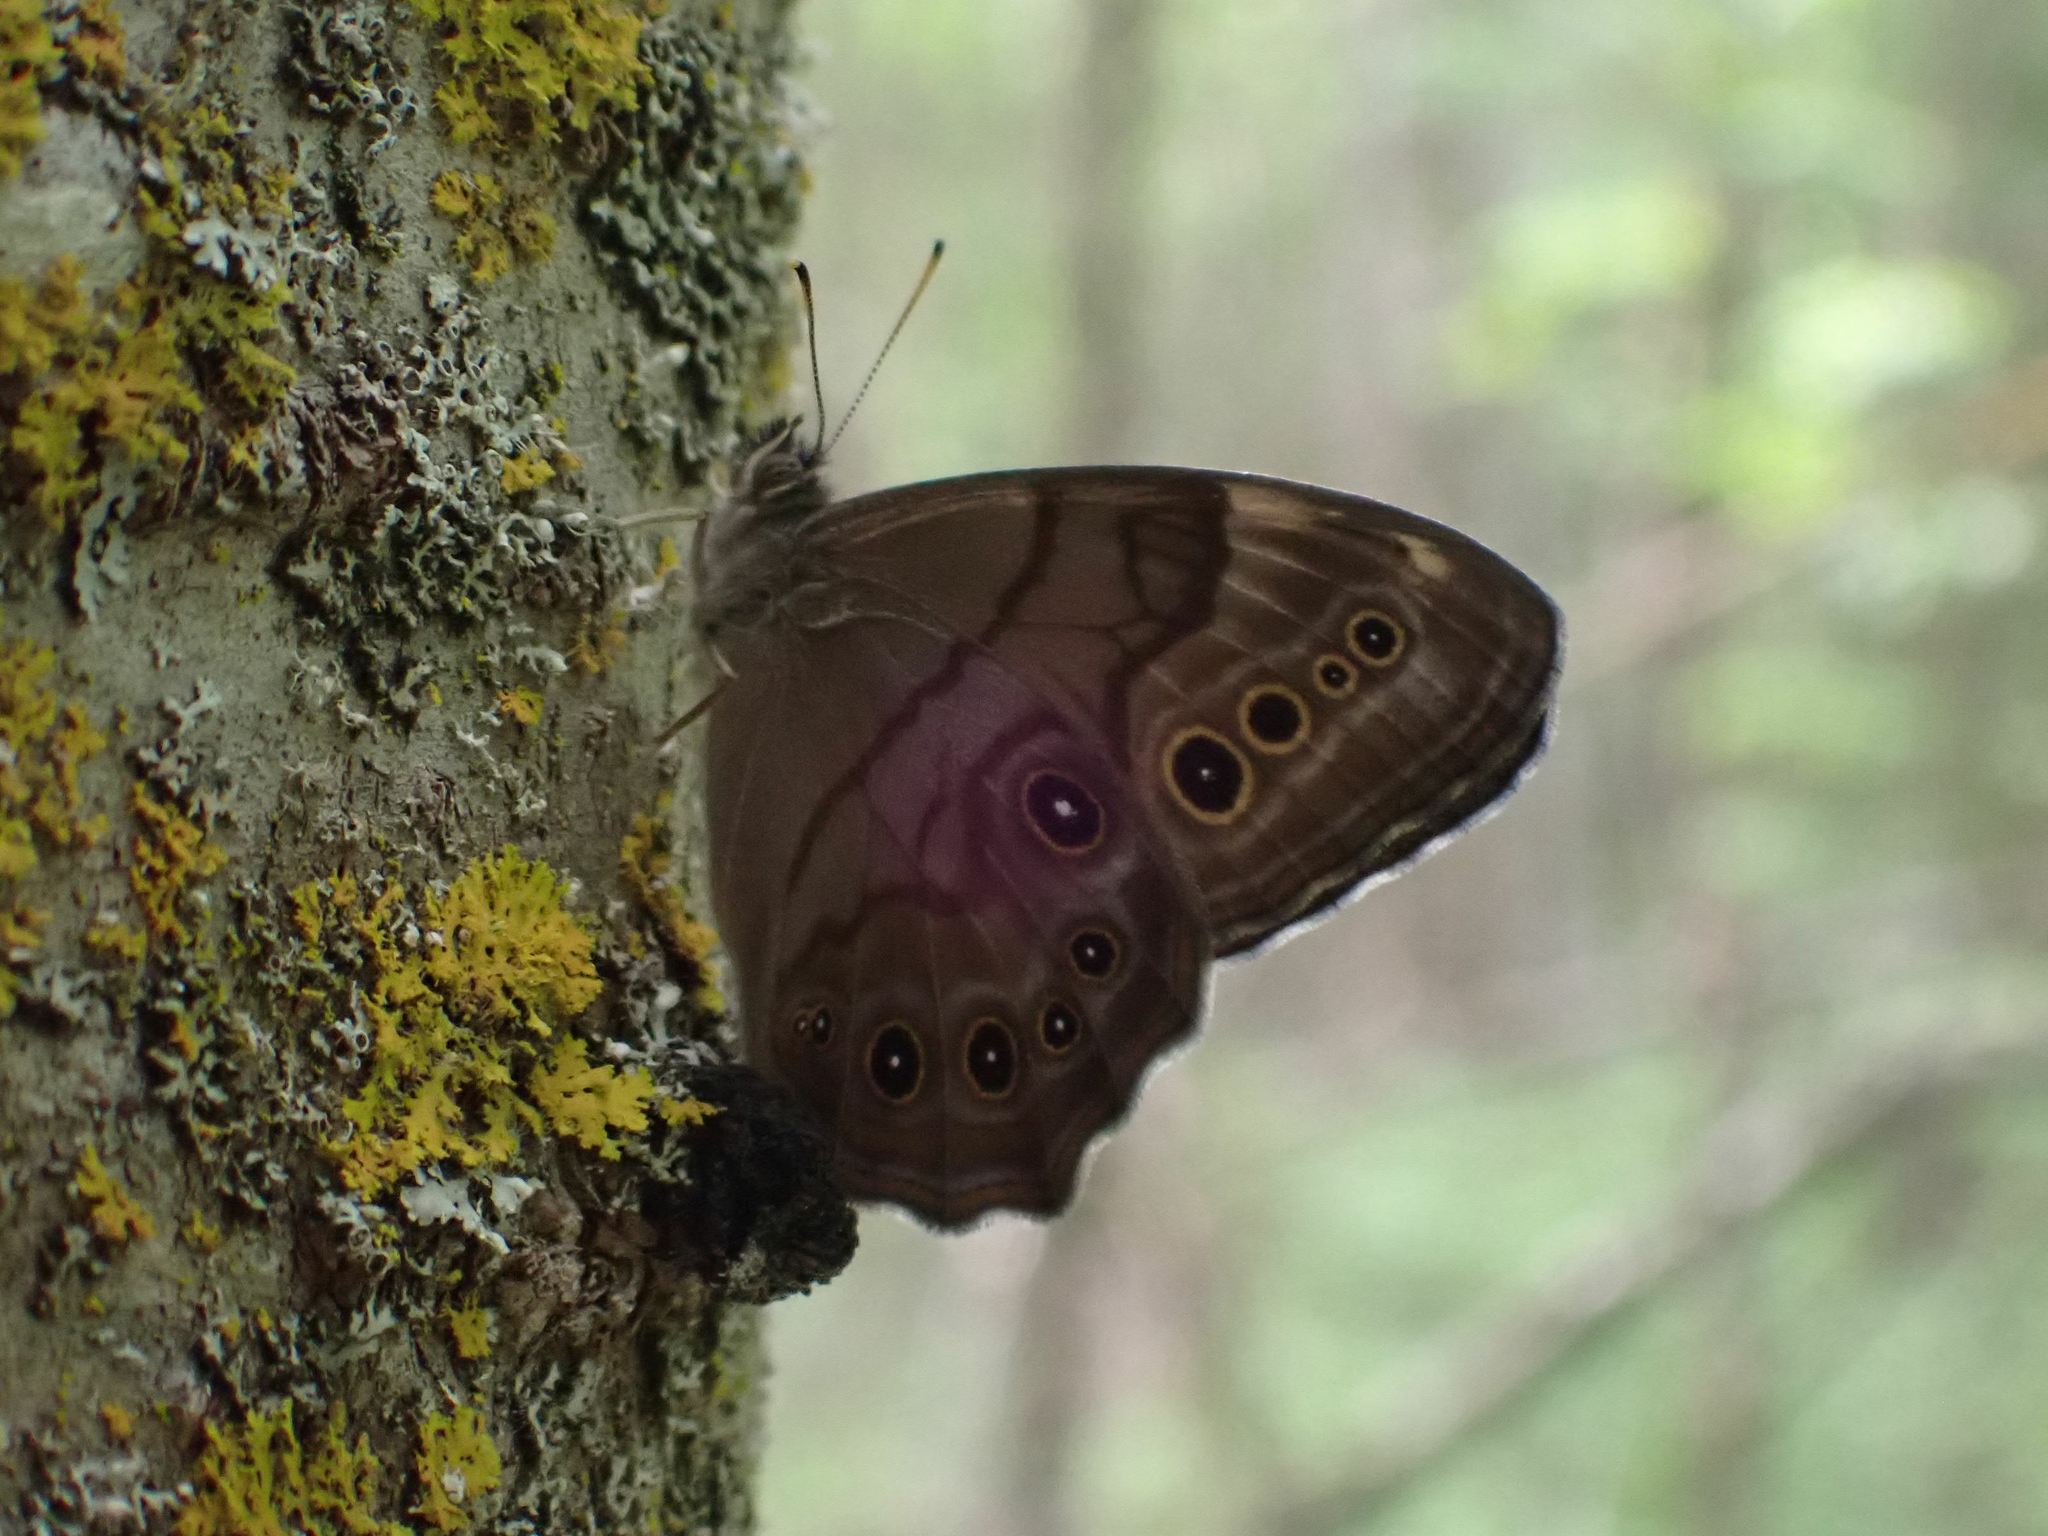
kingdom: Animalia
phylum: Arthropoda
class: Insecta
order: Lepidoptera
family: Nymphalidae
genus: Lethe
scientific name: Lethe anthedon
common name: Northern pearly-eye
